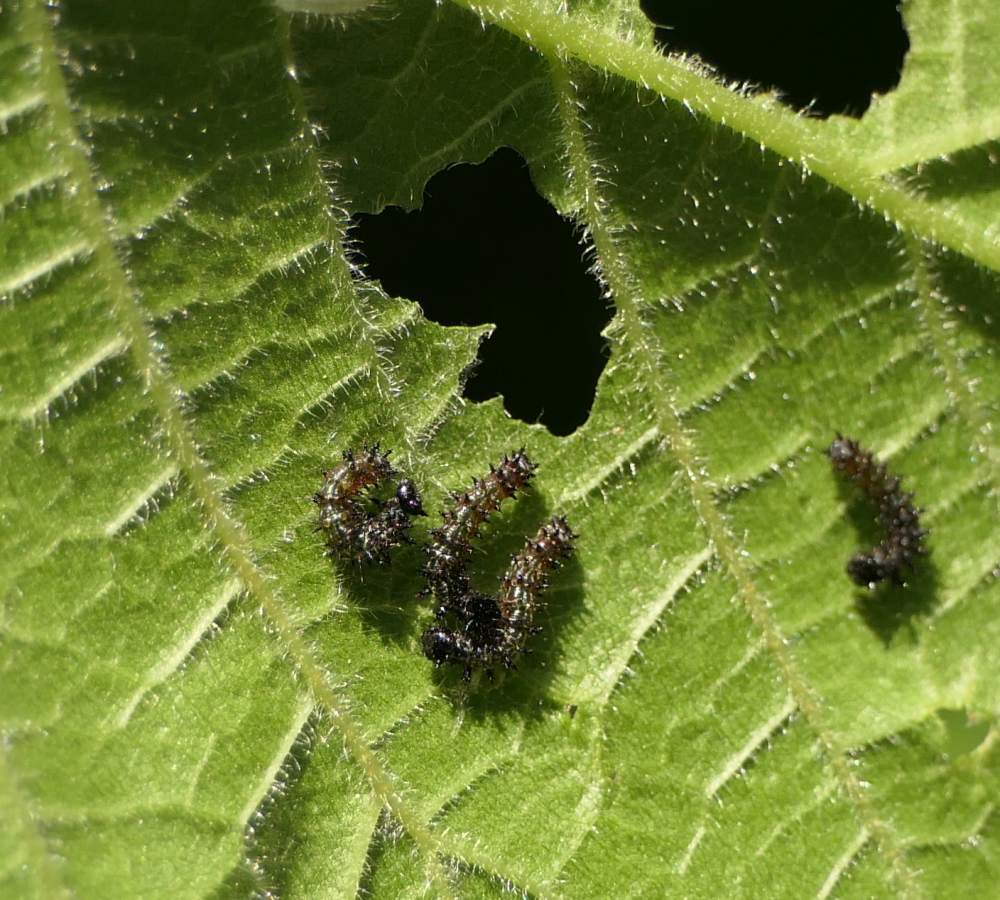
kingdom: Animalia
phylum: Arthropoda
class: Insecta
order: Lepidoptera
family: Nymphalidae
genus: Vanessa
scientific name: Vanessa atalanta
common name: Red admiral
